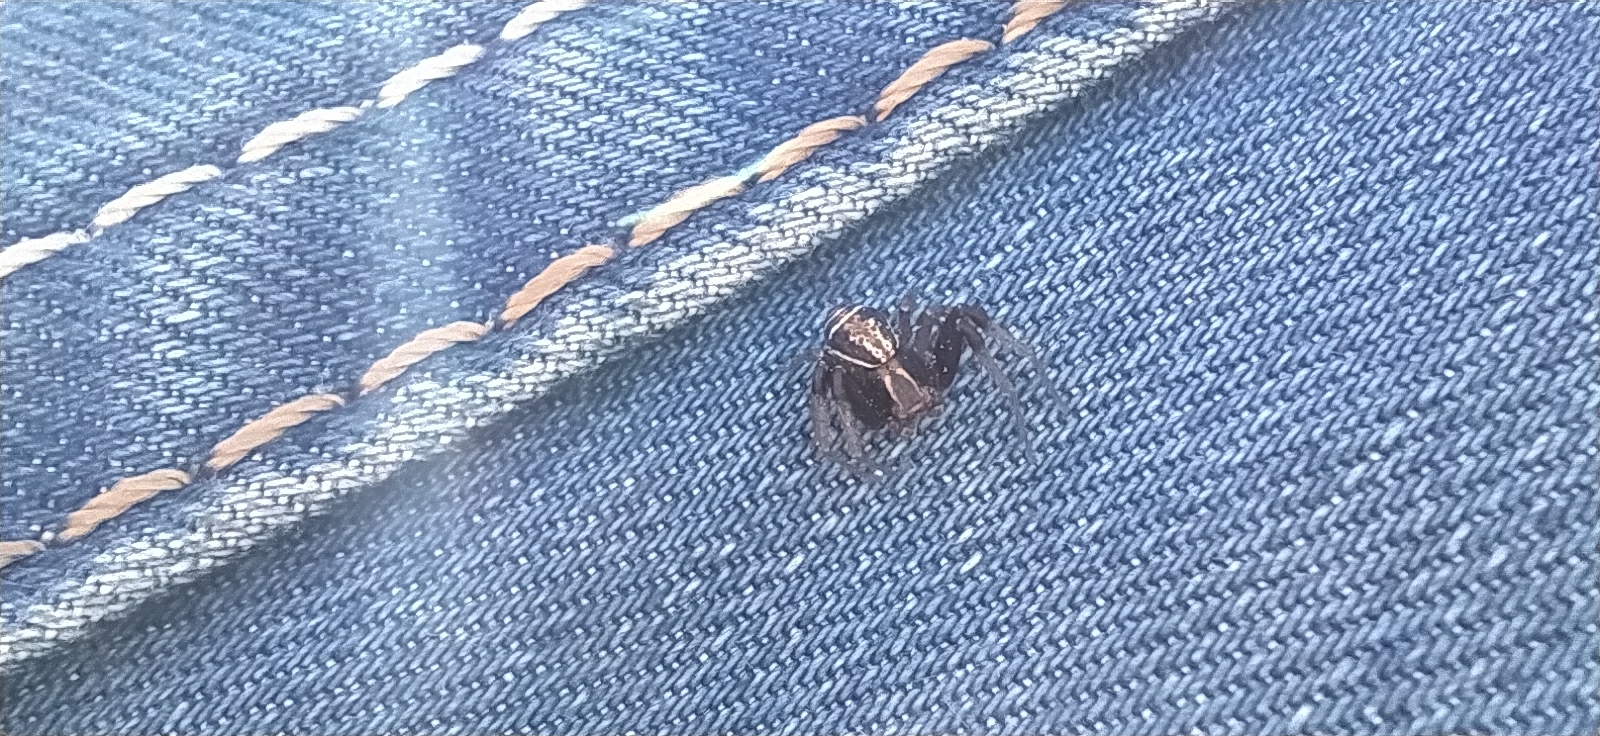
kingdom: Animalia
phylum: Arthropoda
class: Arachnida
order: Araneae
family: Thomisidae
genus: Xysticus
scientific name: Xysticus ulmi
